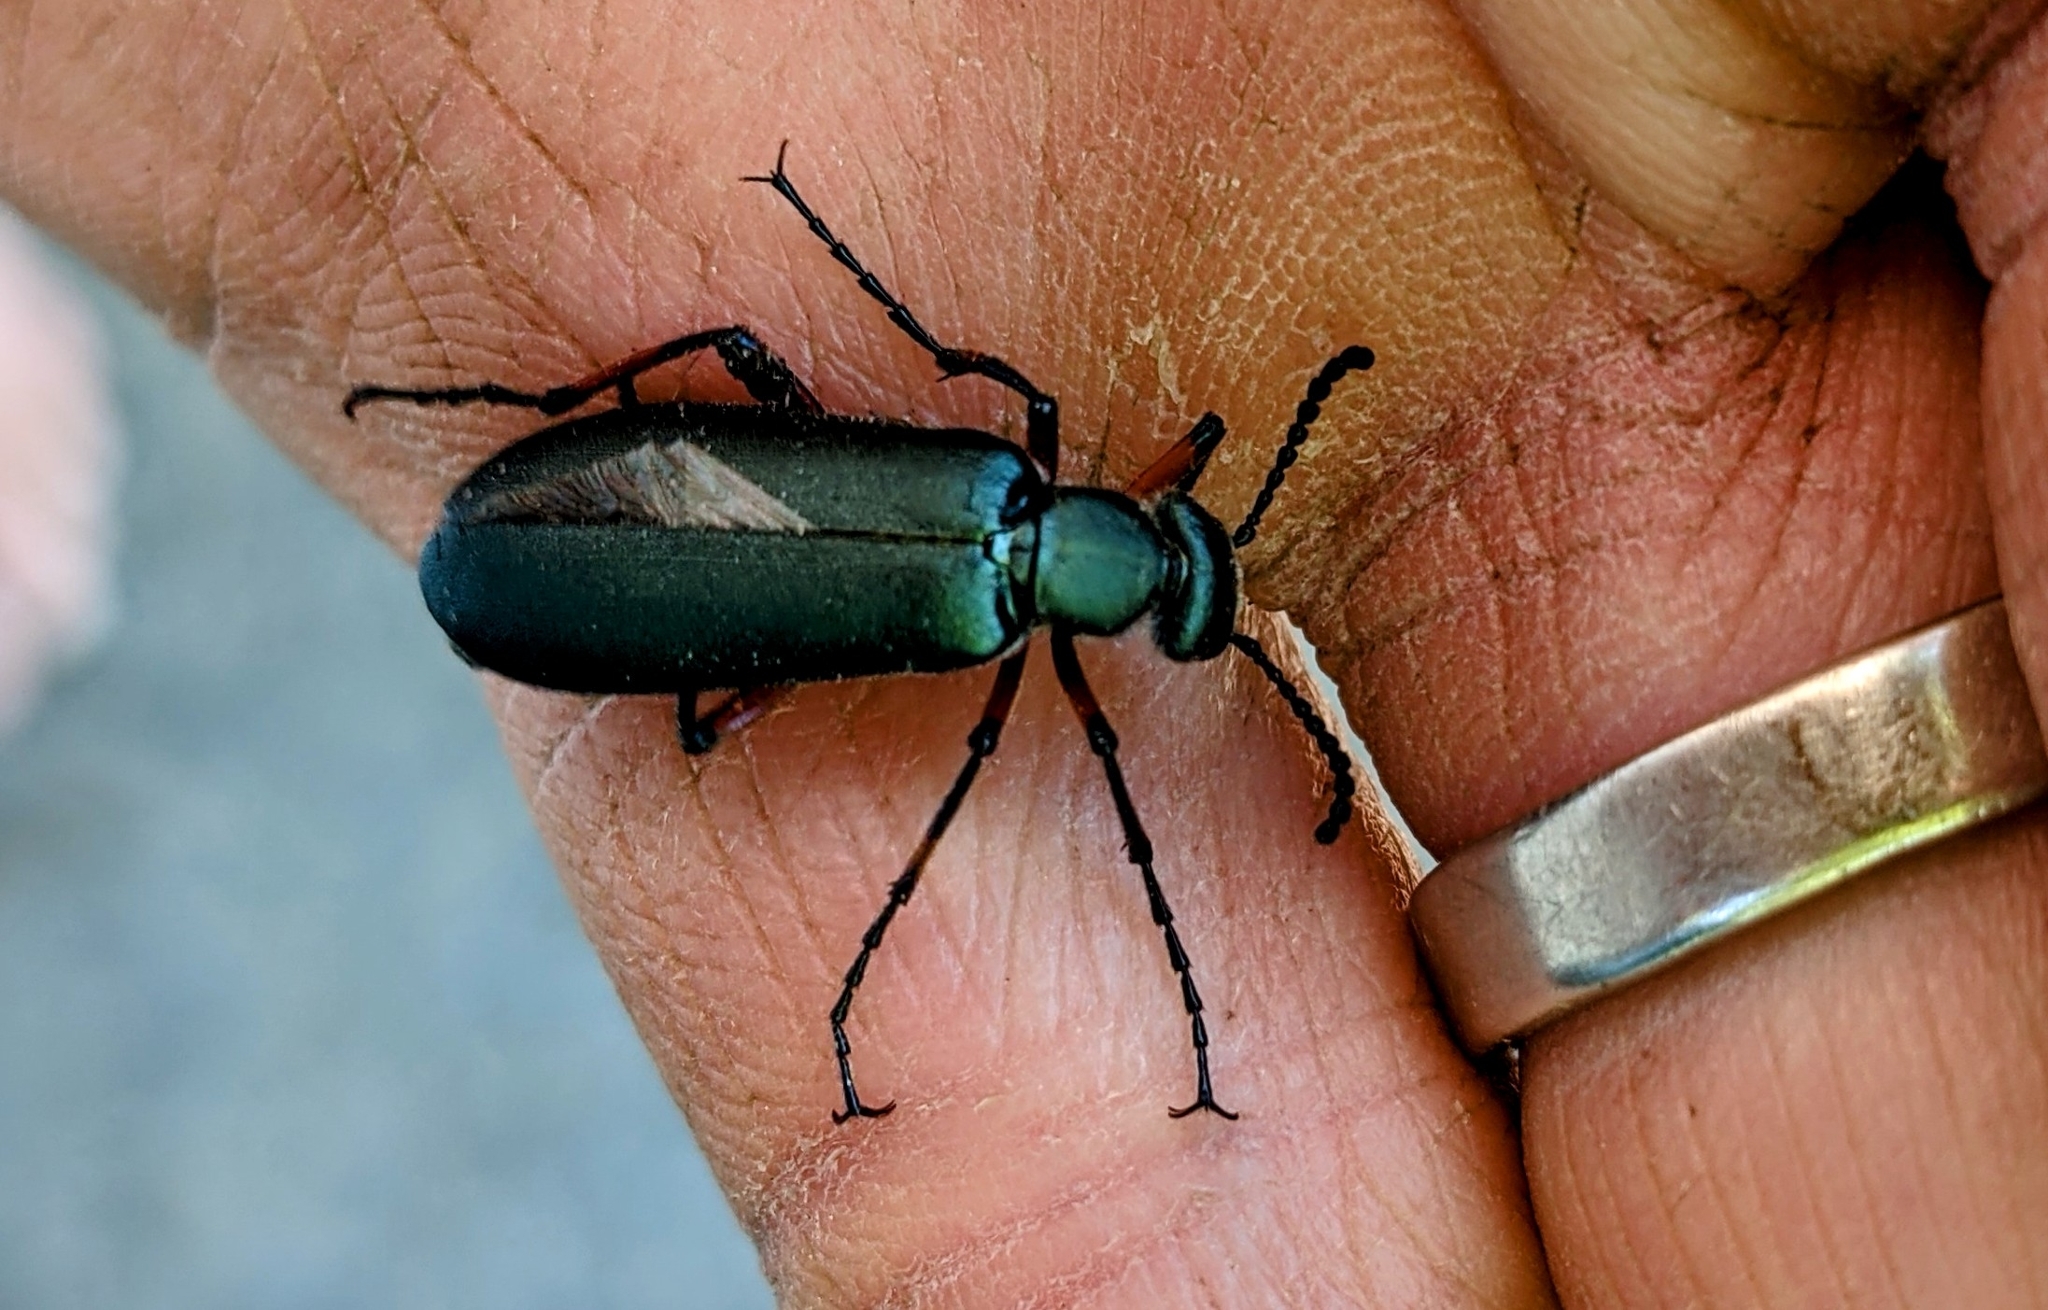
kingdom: Animalia
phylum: Arthropoda
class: Insecta
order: Coleoptera
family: Meloidae
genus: Lytta
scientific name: Lytta sayi
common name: Say's blister beetle
